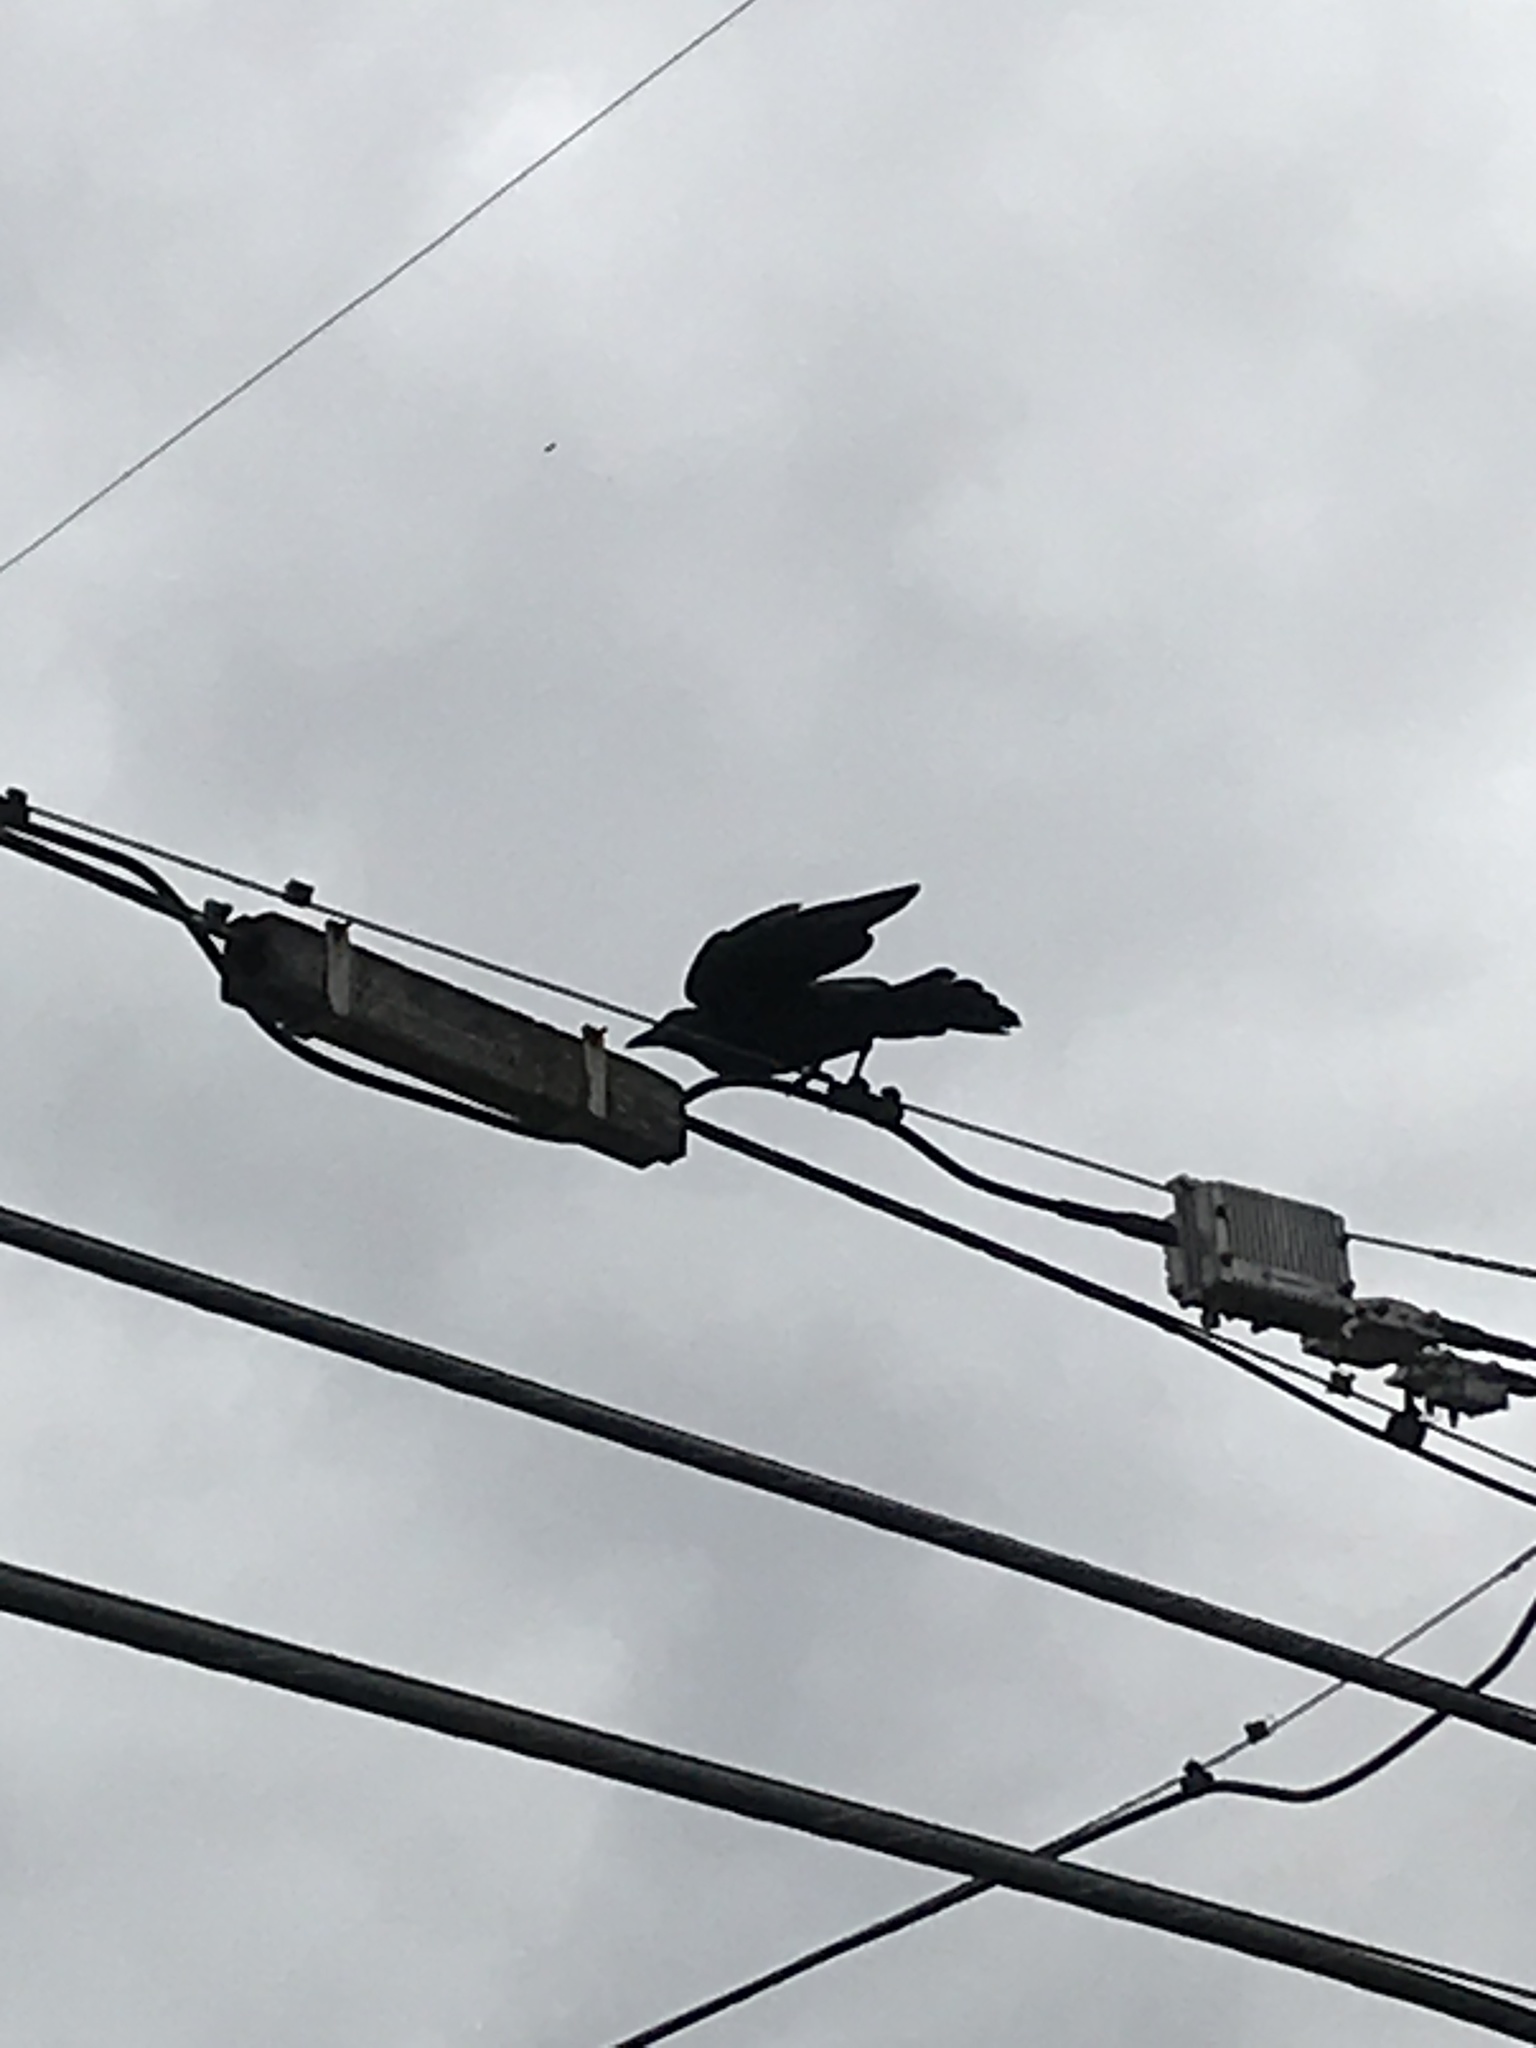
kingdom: Animalia
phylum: Chordata
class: Aves
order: Passeriformes
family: Corvidae
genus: Corvus
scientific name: Corvus brachyrhynchos
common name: American crow
